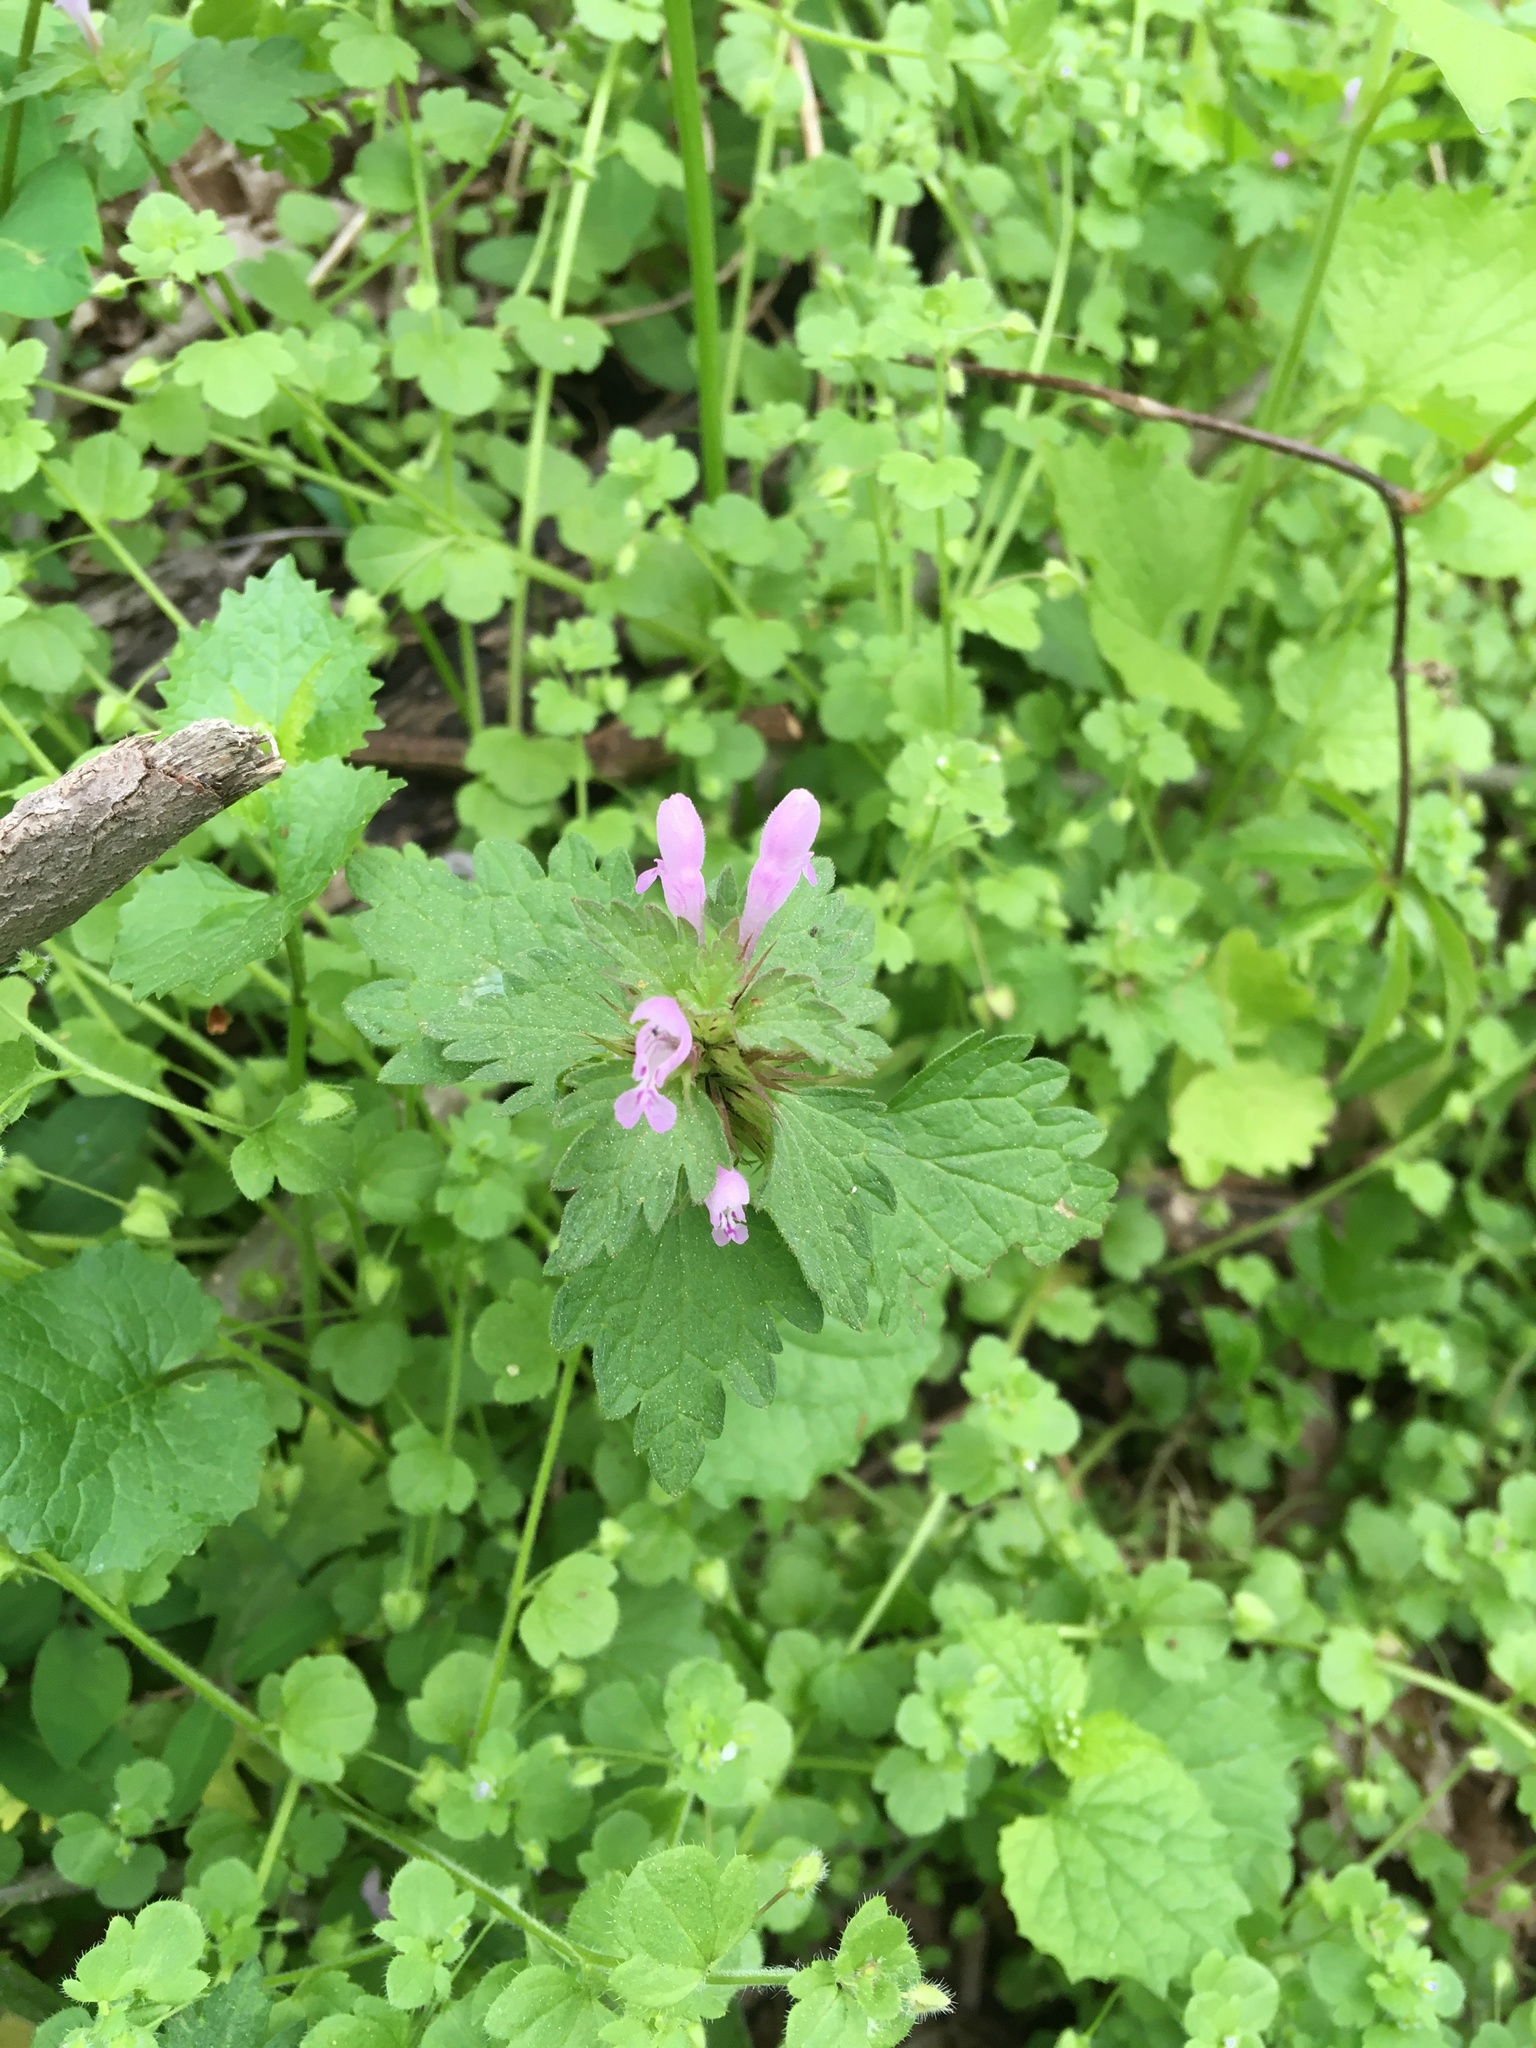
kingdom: Plantae
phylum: Tracheophyta
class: Magnoliopsida
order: Lamiales
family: Lamiaceae
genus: Lamium
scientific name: Lamium hybridum
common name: Cut-leaved dead-nettle
